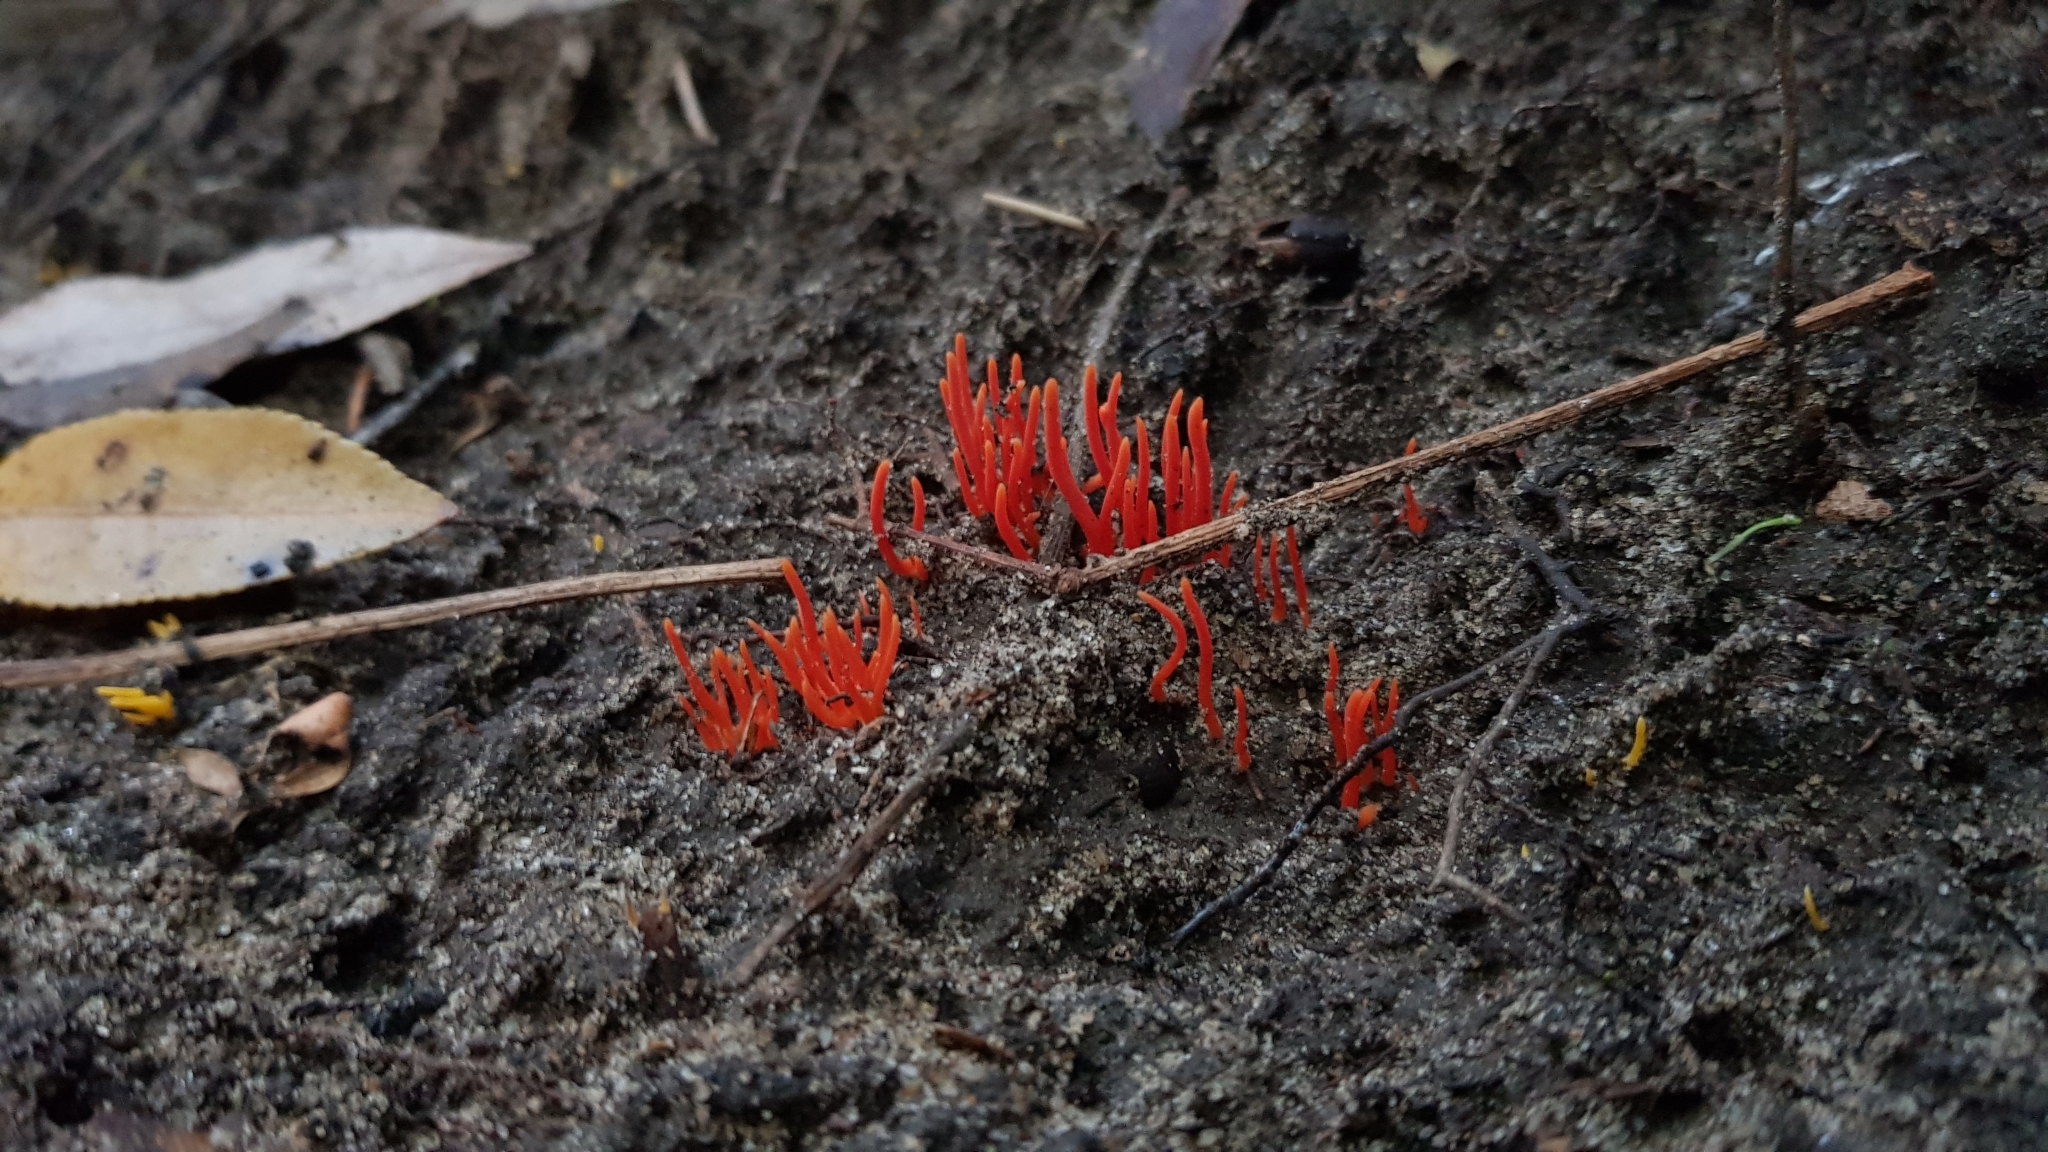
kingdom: Fungi
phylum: Basidiomycota
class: Agaricomycetes
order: Agaricales
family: Clavariaceae
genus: Clavulinopsis
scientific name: Clavulinopsis corallinorosacea
